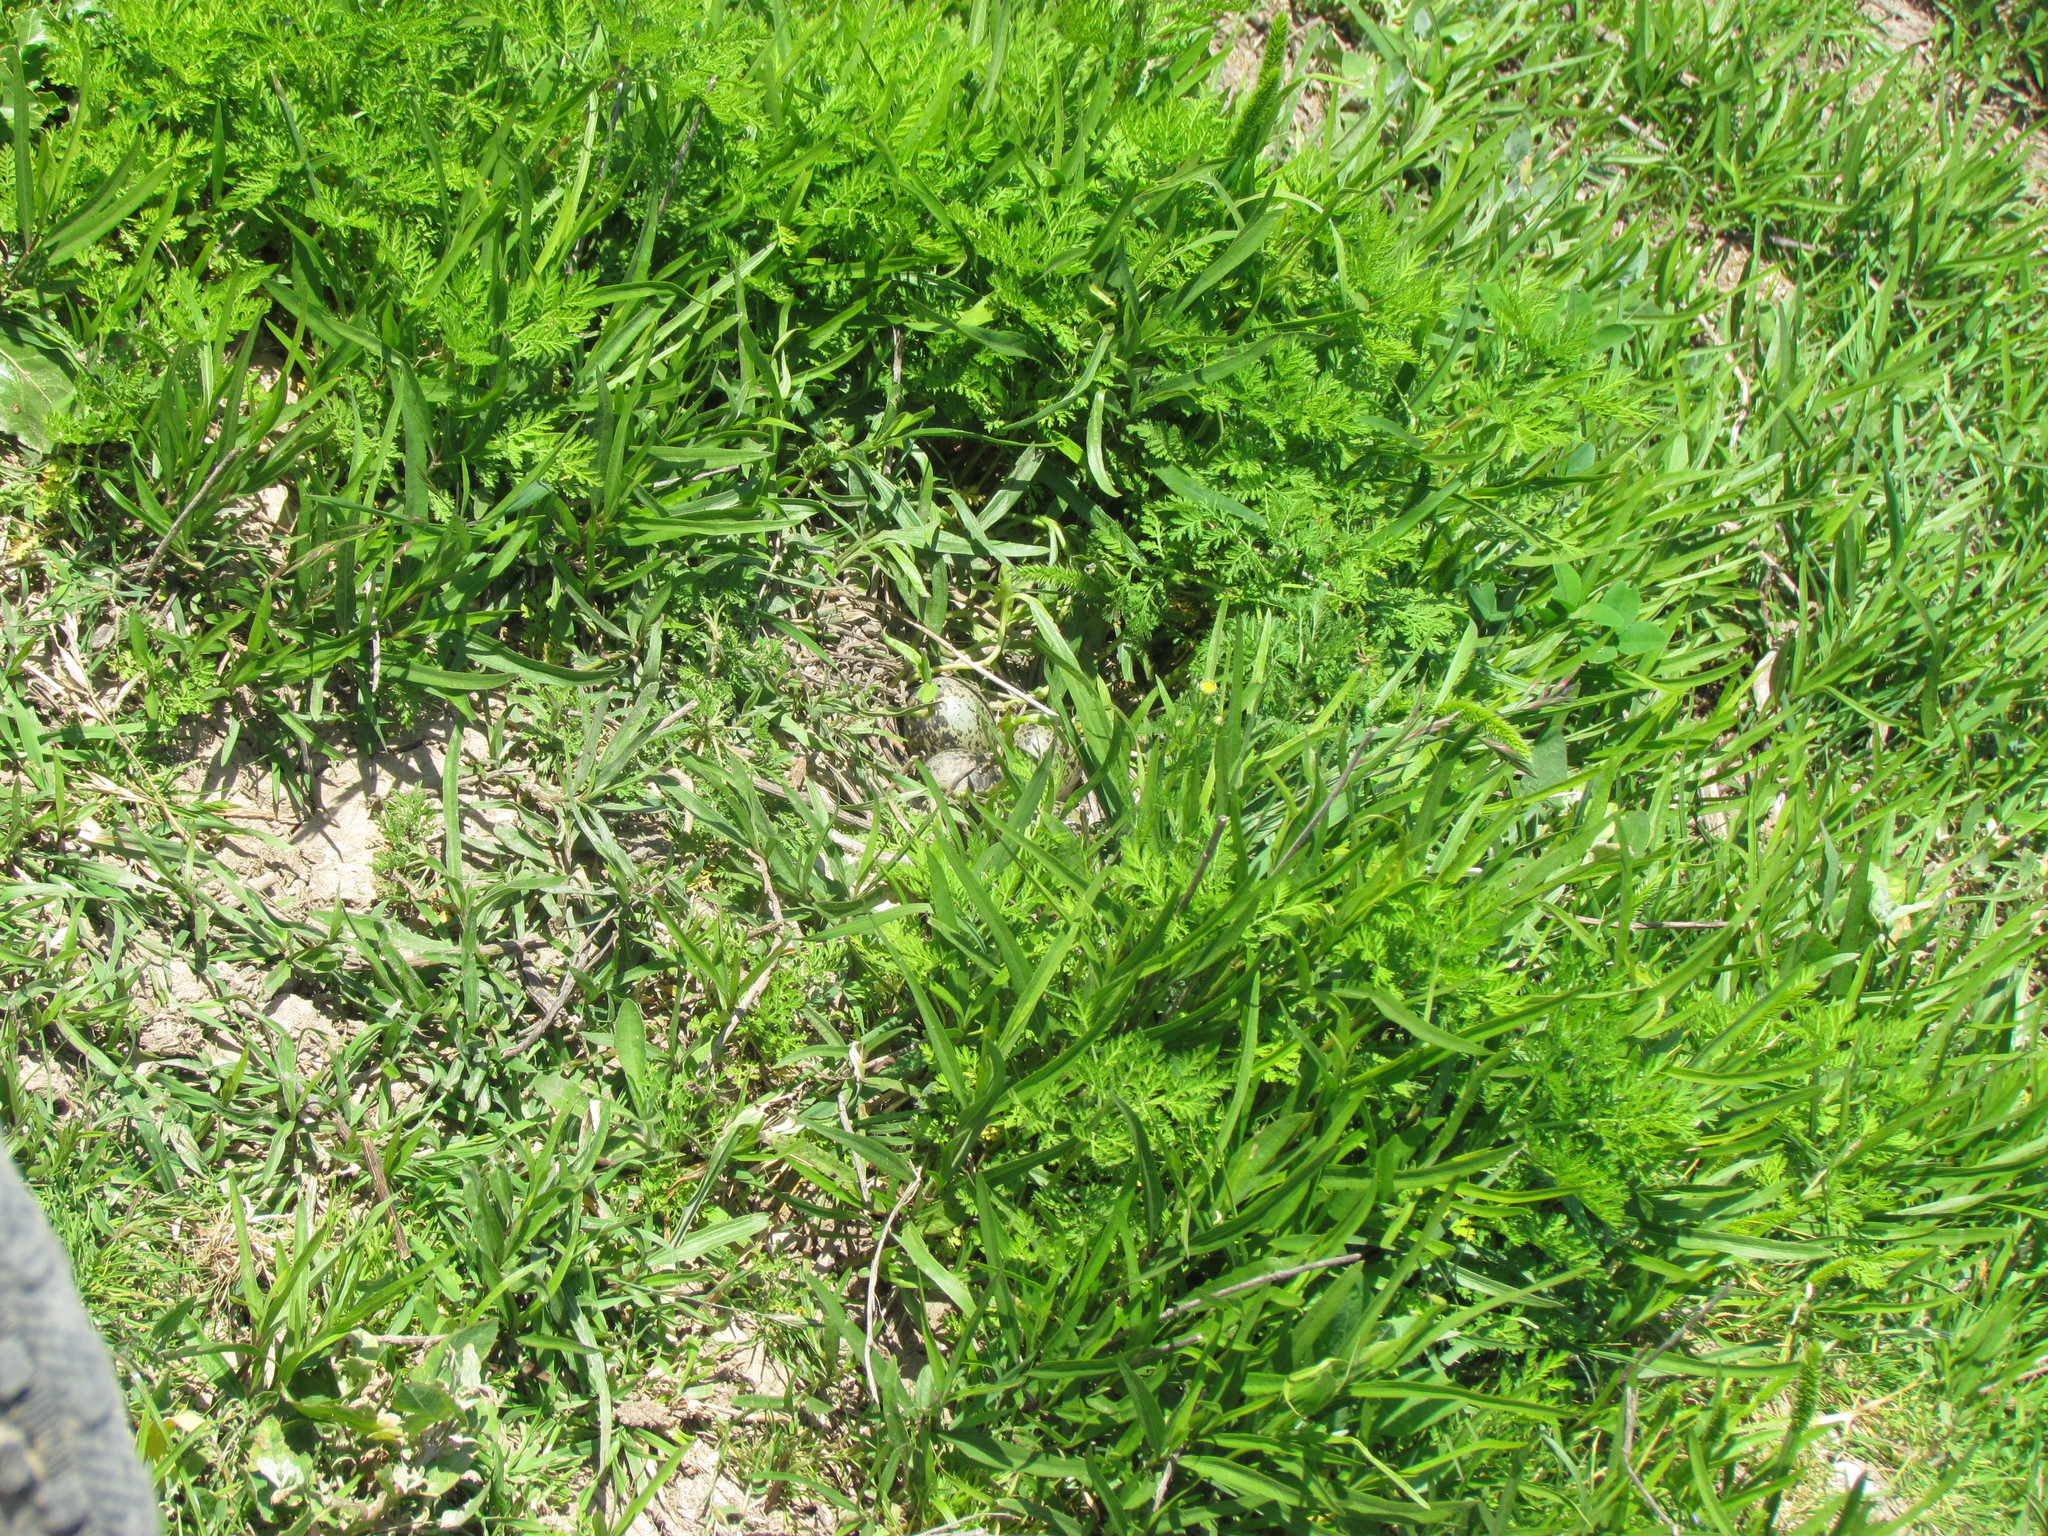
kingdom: Animalia
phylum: Chordata
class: Aves
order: Charadriiformes
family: Charadriidae
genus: Vanellus
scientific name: Vanellus chilensis
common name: Southern lapwing
